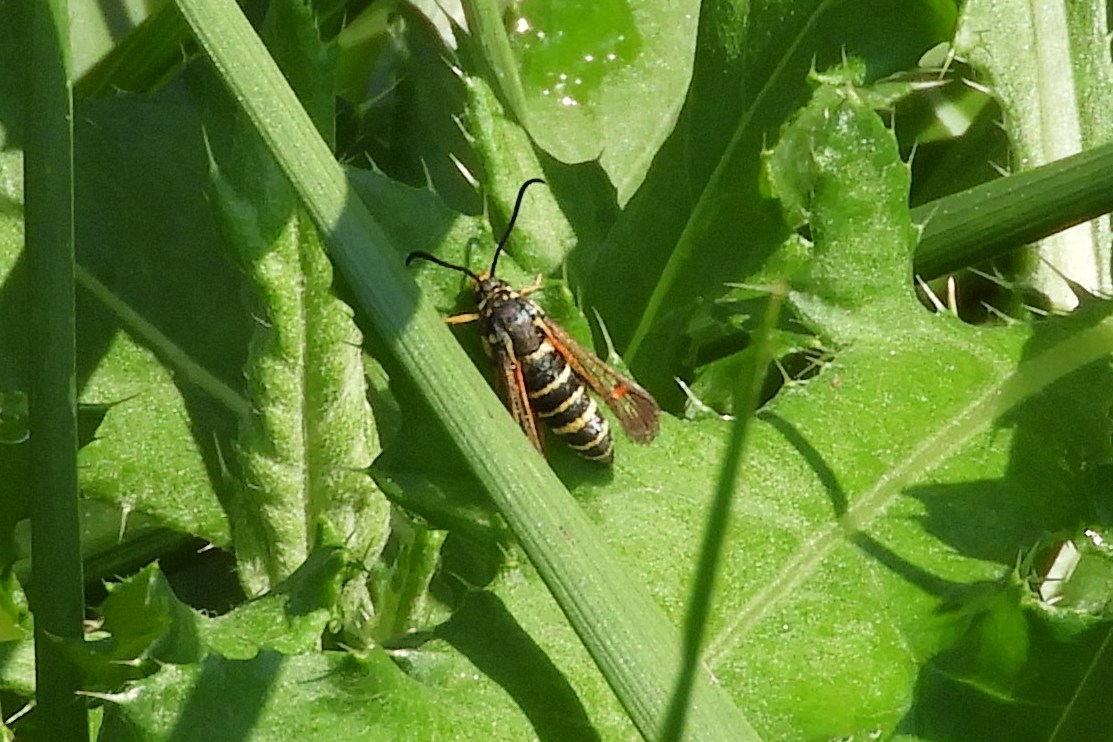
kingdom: Animalia
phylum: Arthropoda
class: Insecta
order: Lepidoptera
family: Sesiidae
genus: Synanthedon
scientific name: Synanthedon rileyana
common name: Riley's clearwing moth
